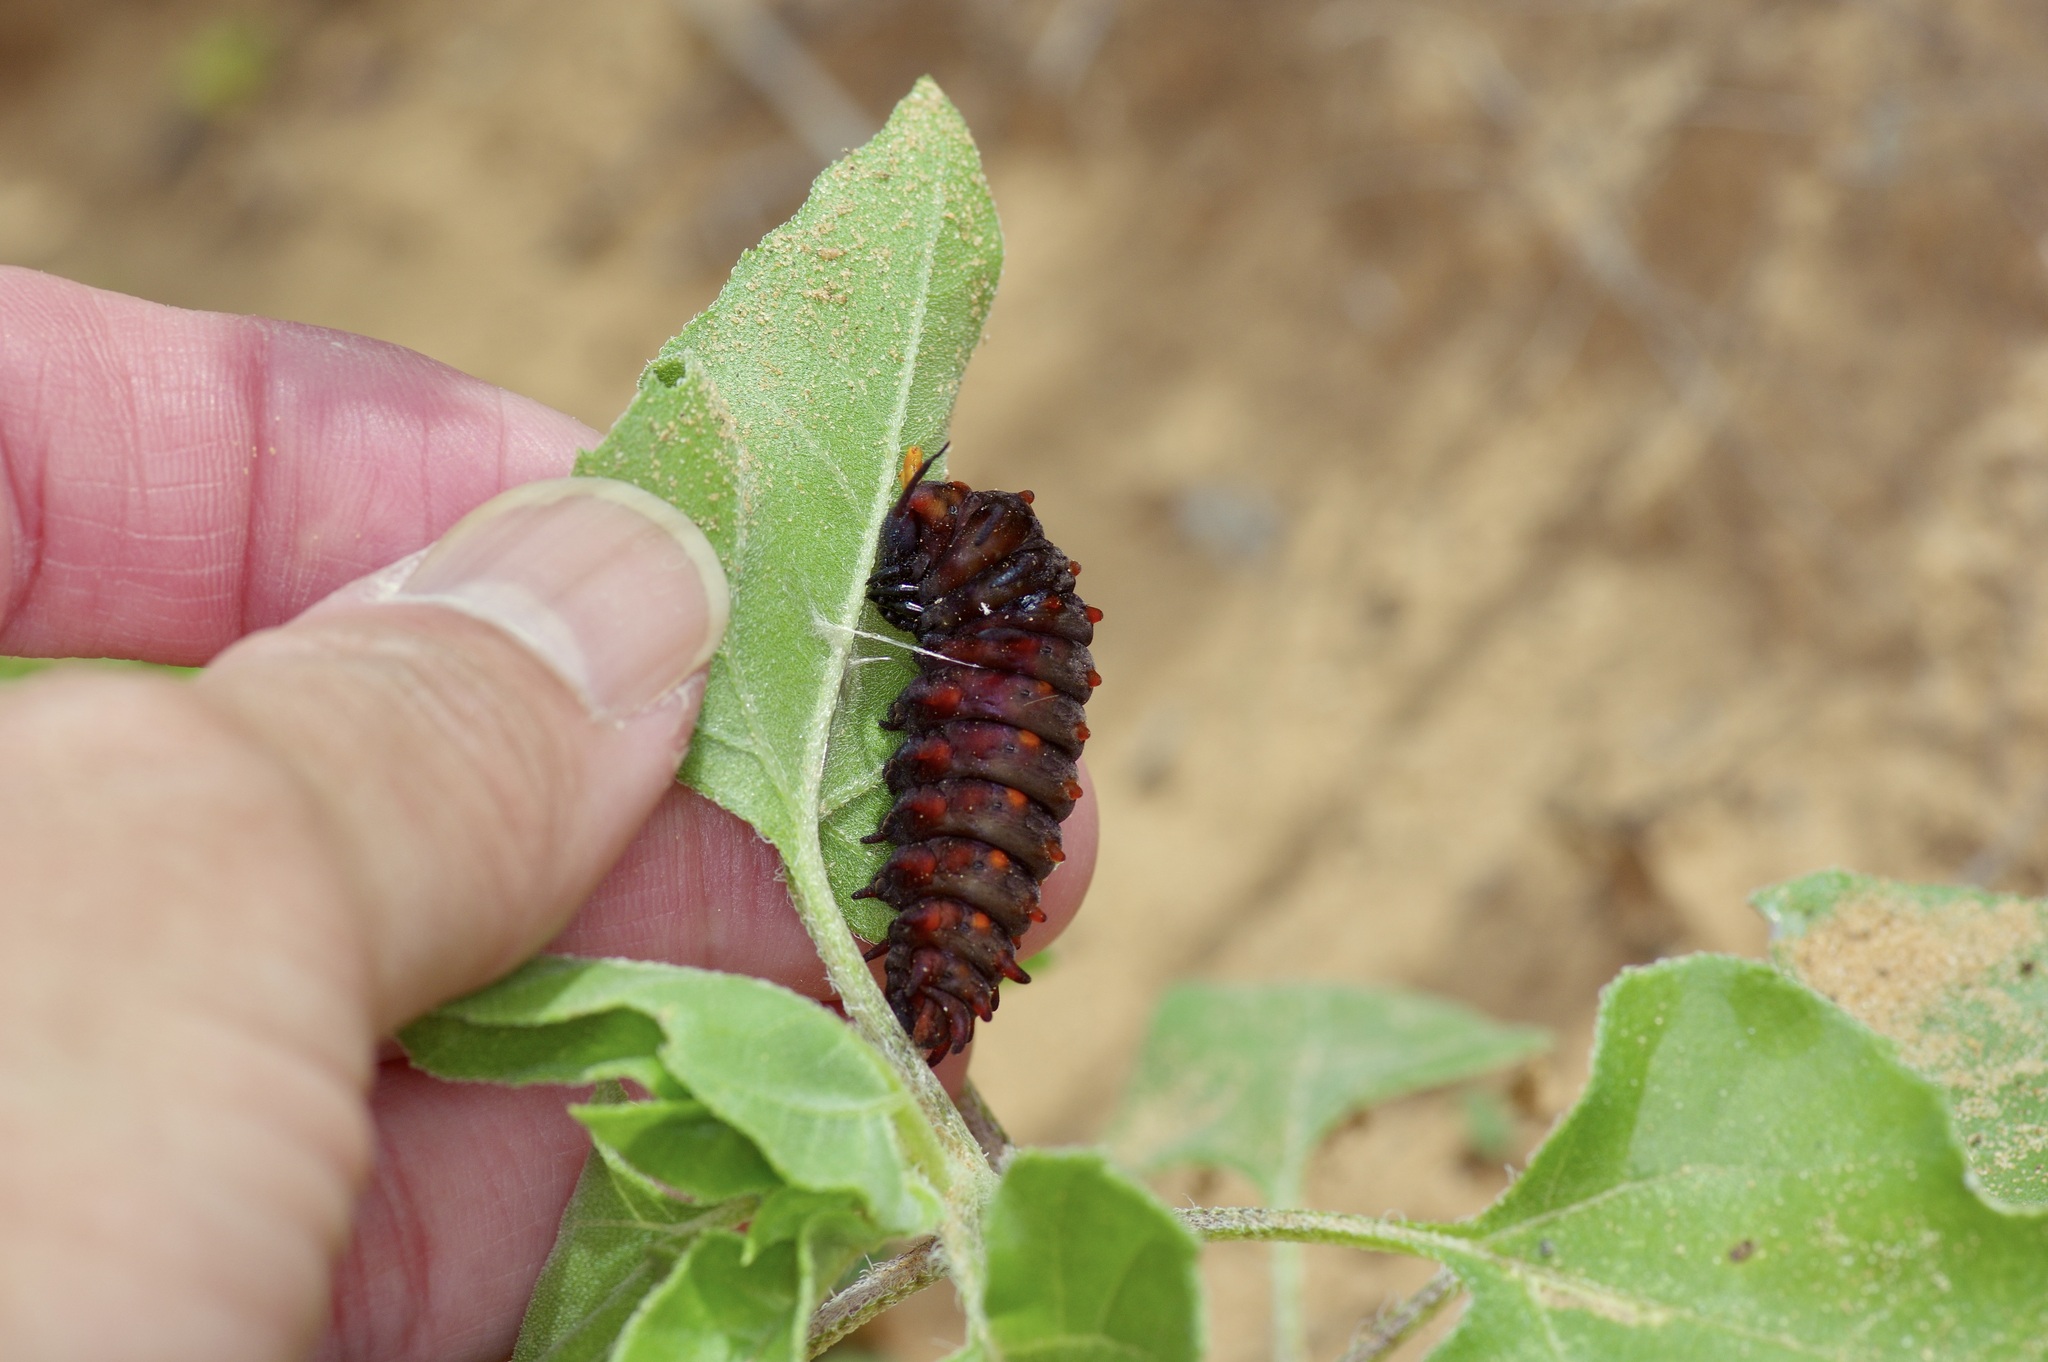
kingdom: Animalia
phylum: Arthropoda
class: Insecta
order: Lepidoptera
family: Papilionidae
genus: Battus
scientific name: Battus philenor
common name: Pipevine swallowtail
